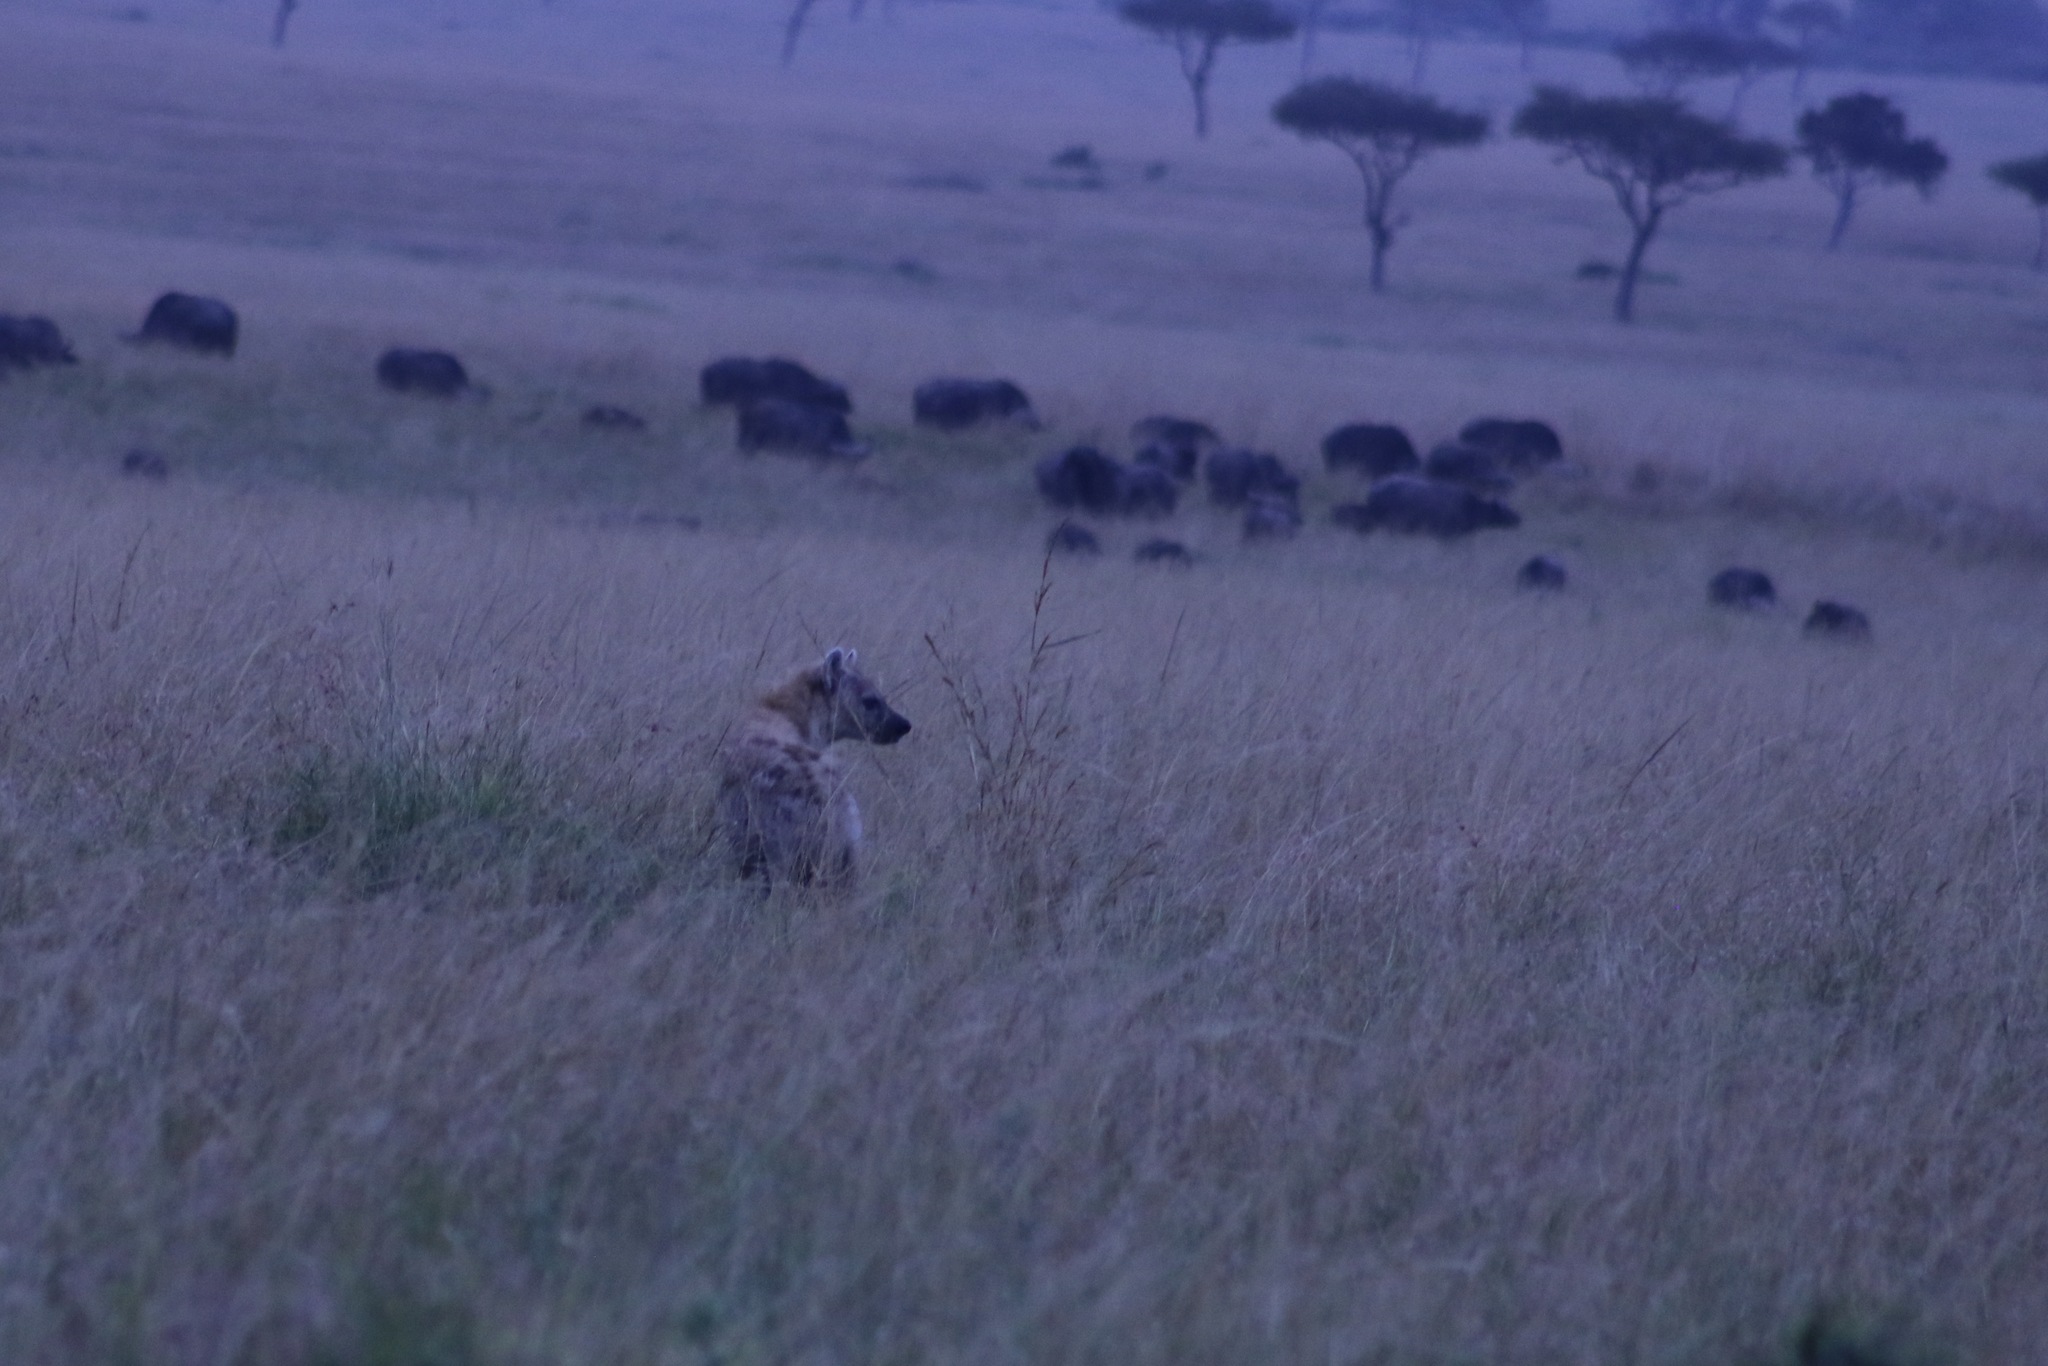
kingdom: Animalia
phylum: Chordata
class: Mammalia
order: Carnivora
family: Hyaenidae
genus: Crocuta
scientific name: Crocuta crocuta
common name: Spotted hyaena
